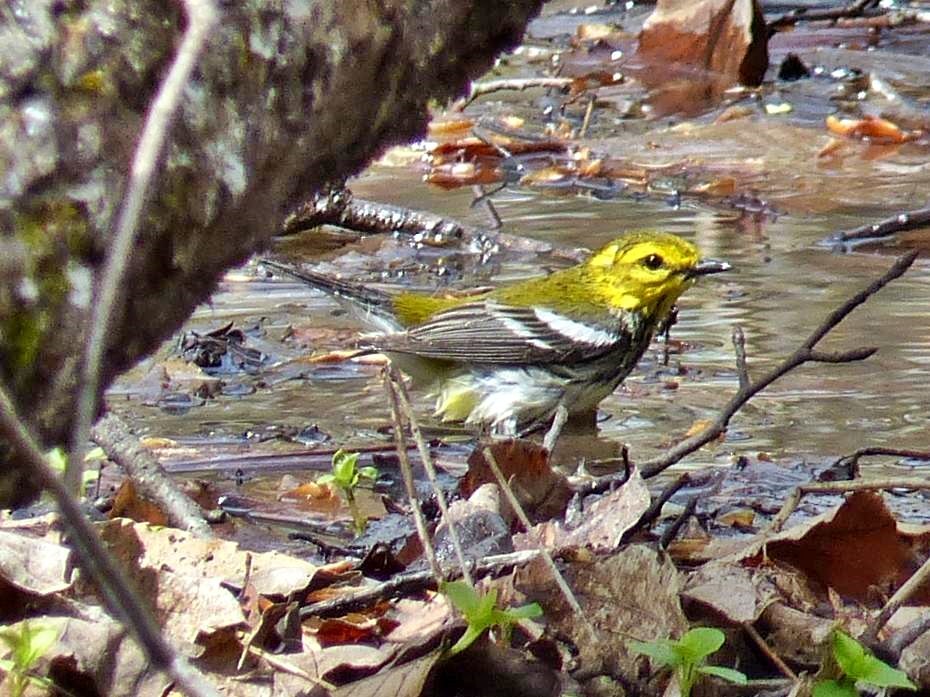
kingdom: Animalia
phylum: Chordata
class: Aves
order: Passeriformes
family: Parulidae
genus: Setophaga
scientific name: Setophaga virens
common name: Black-throated green warbler
